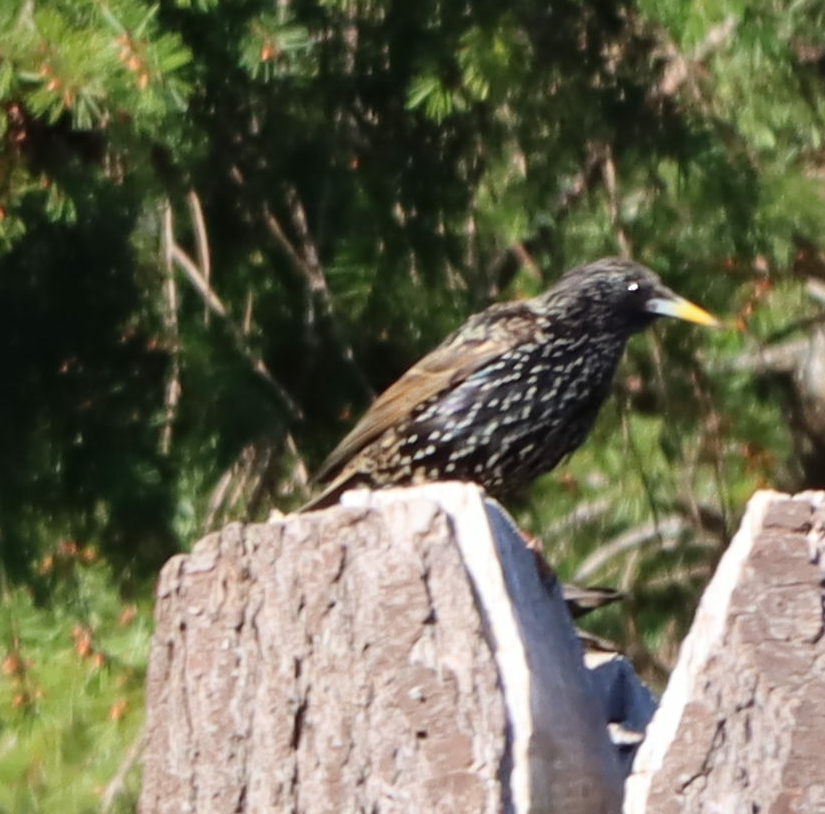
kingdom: Animalia
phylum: Chordata
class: Aves
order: Passeriformes
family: Sturnidae
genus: Sturnus
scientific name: Sturnus vulgaris
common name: Common starling
